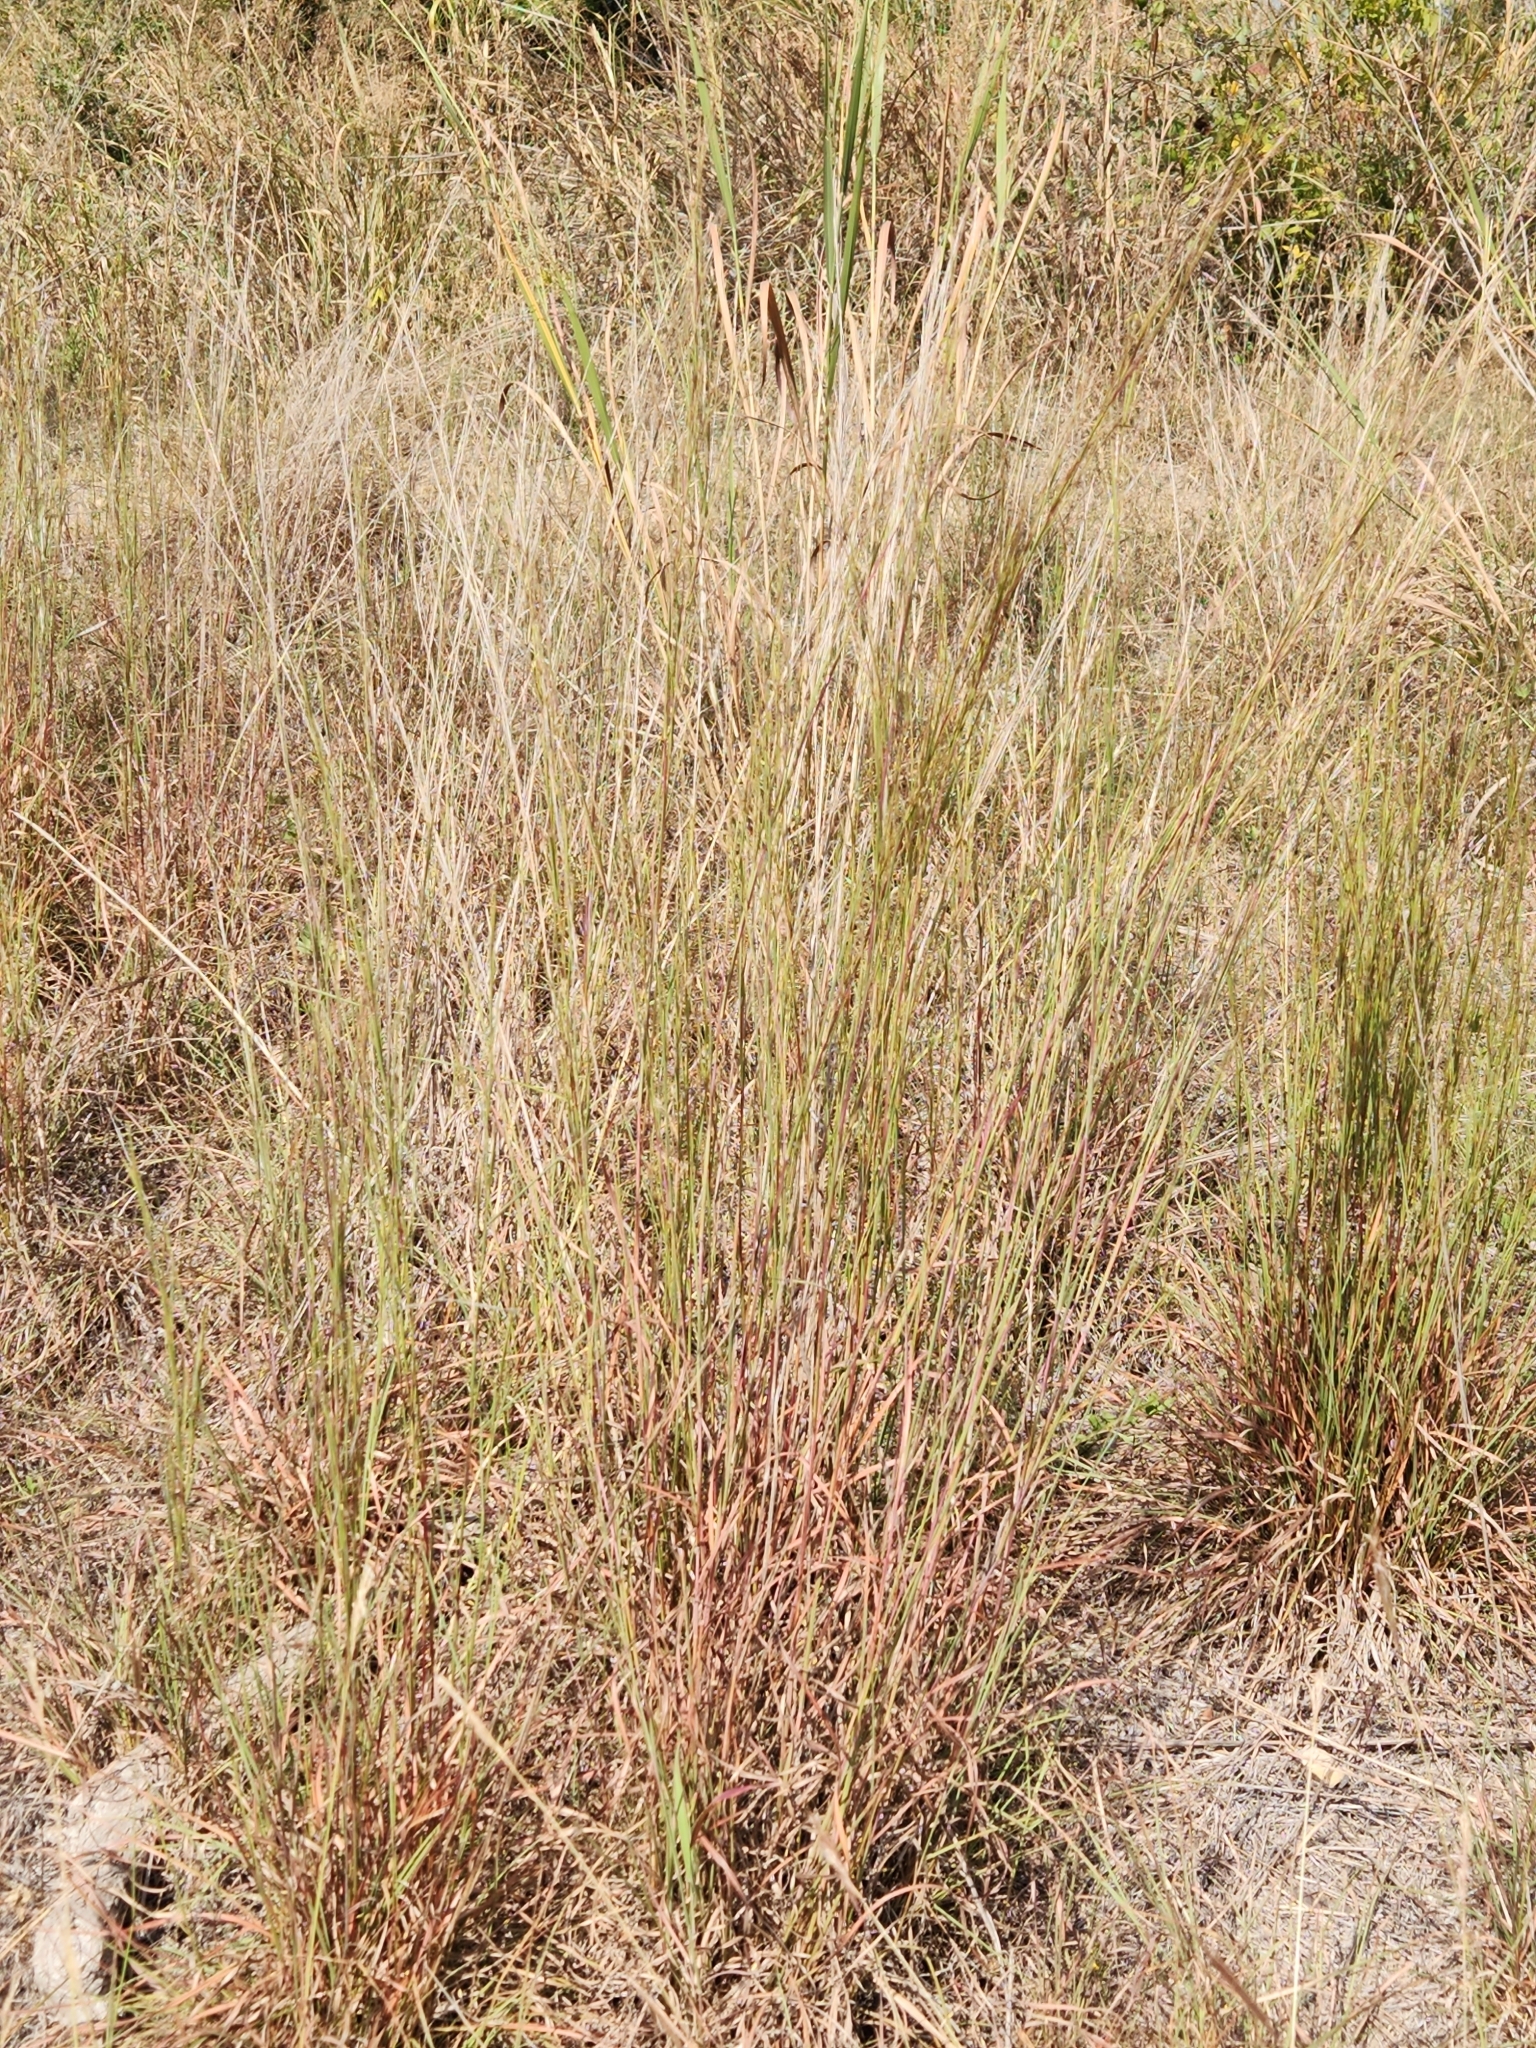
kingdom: Plantae
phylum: Tracheophyta
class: Liliopsida
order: Poales
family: Poaceae
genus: Schizachyrium
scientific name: Schizachyrium scoparium
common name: Little bluestem
